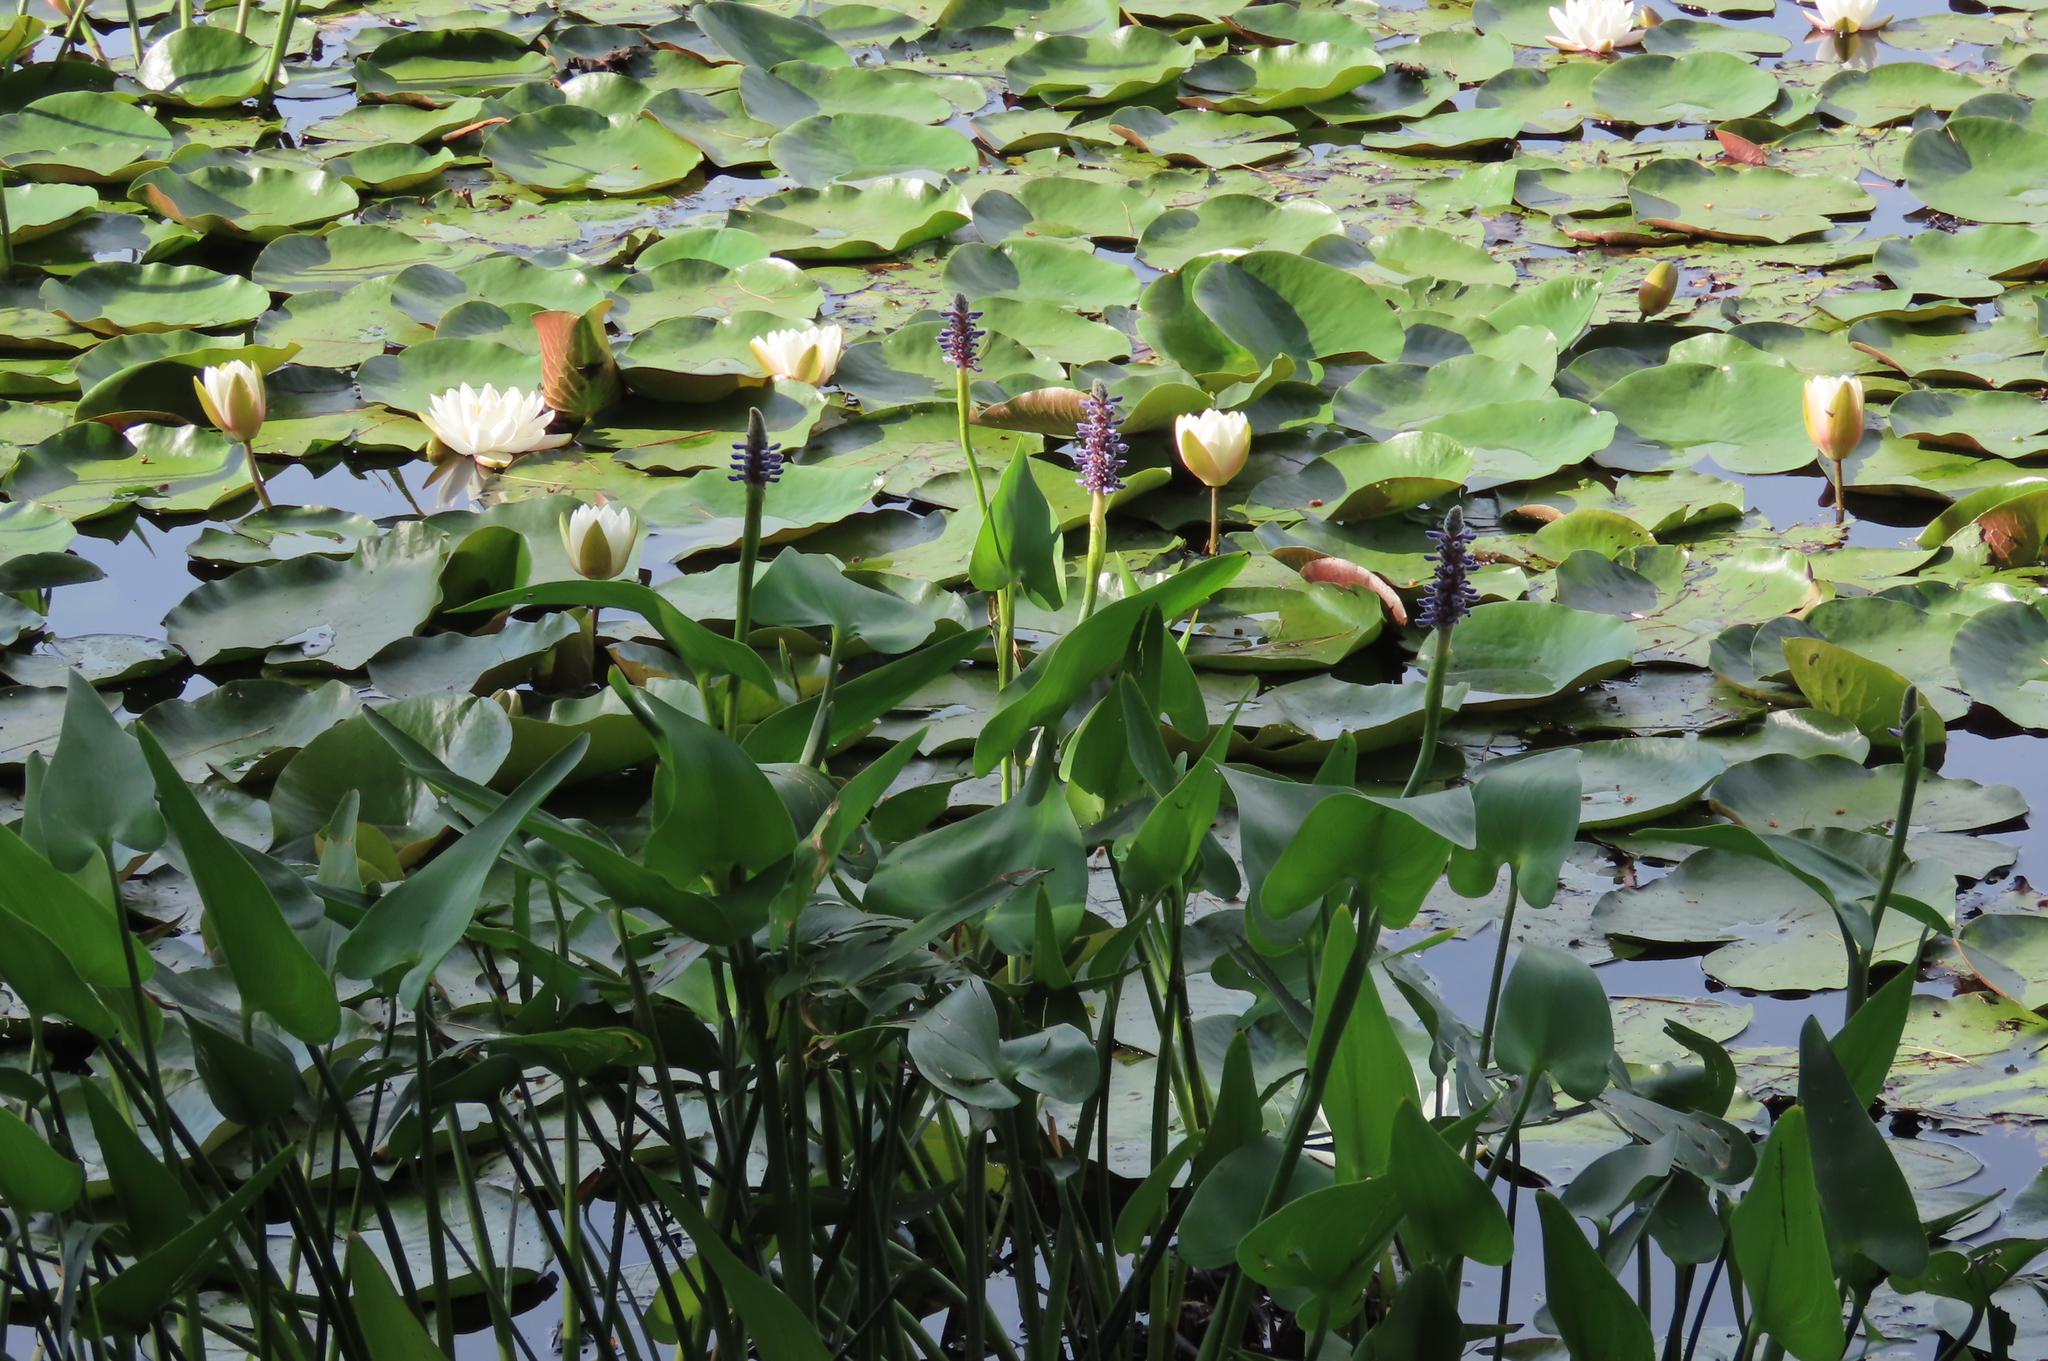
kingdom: Plantae
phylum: Tracheophyta
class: Liliopsida
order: Commelinales
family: Pontederiaceae
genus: Pontederia
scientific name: Pontederia cordata
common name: Pickerelweed
